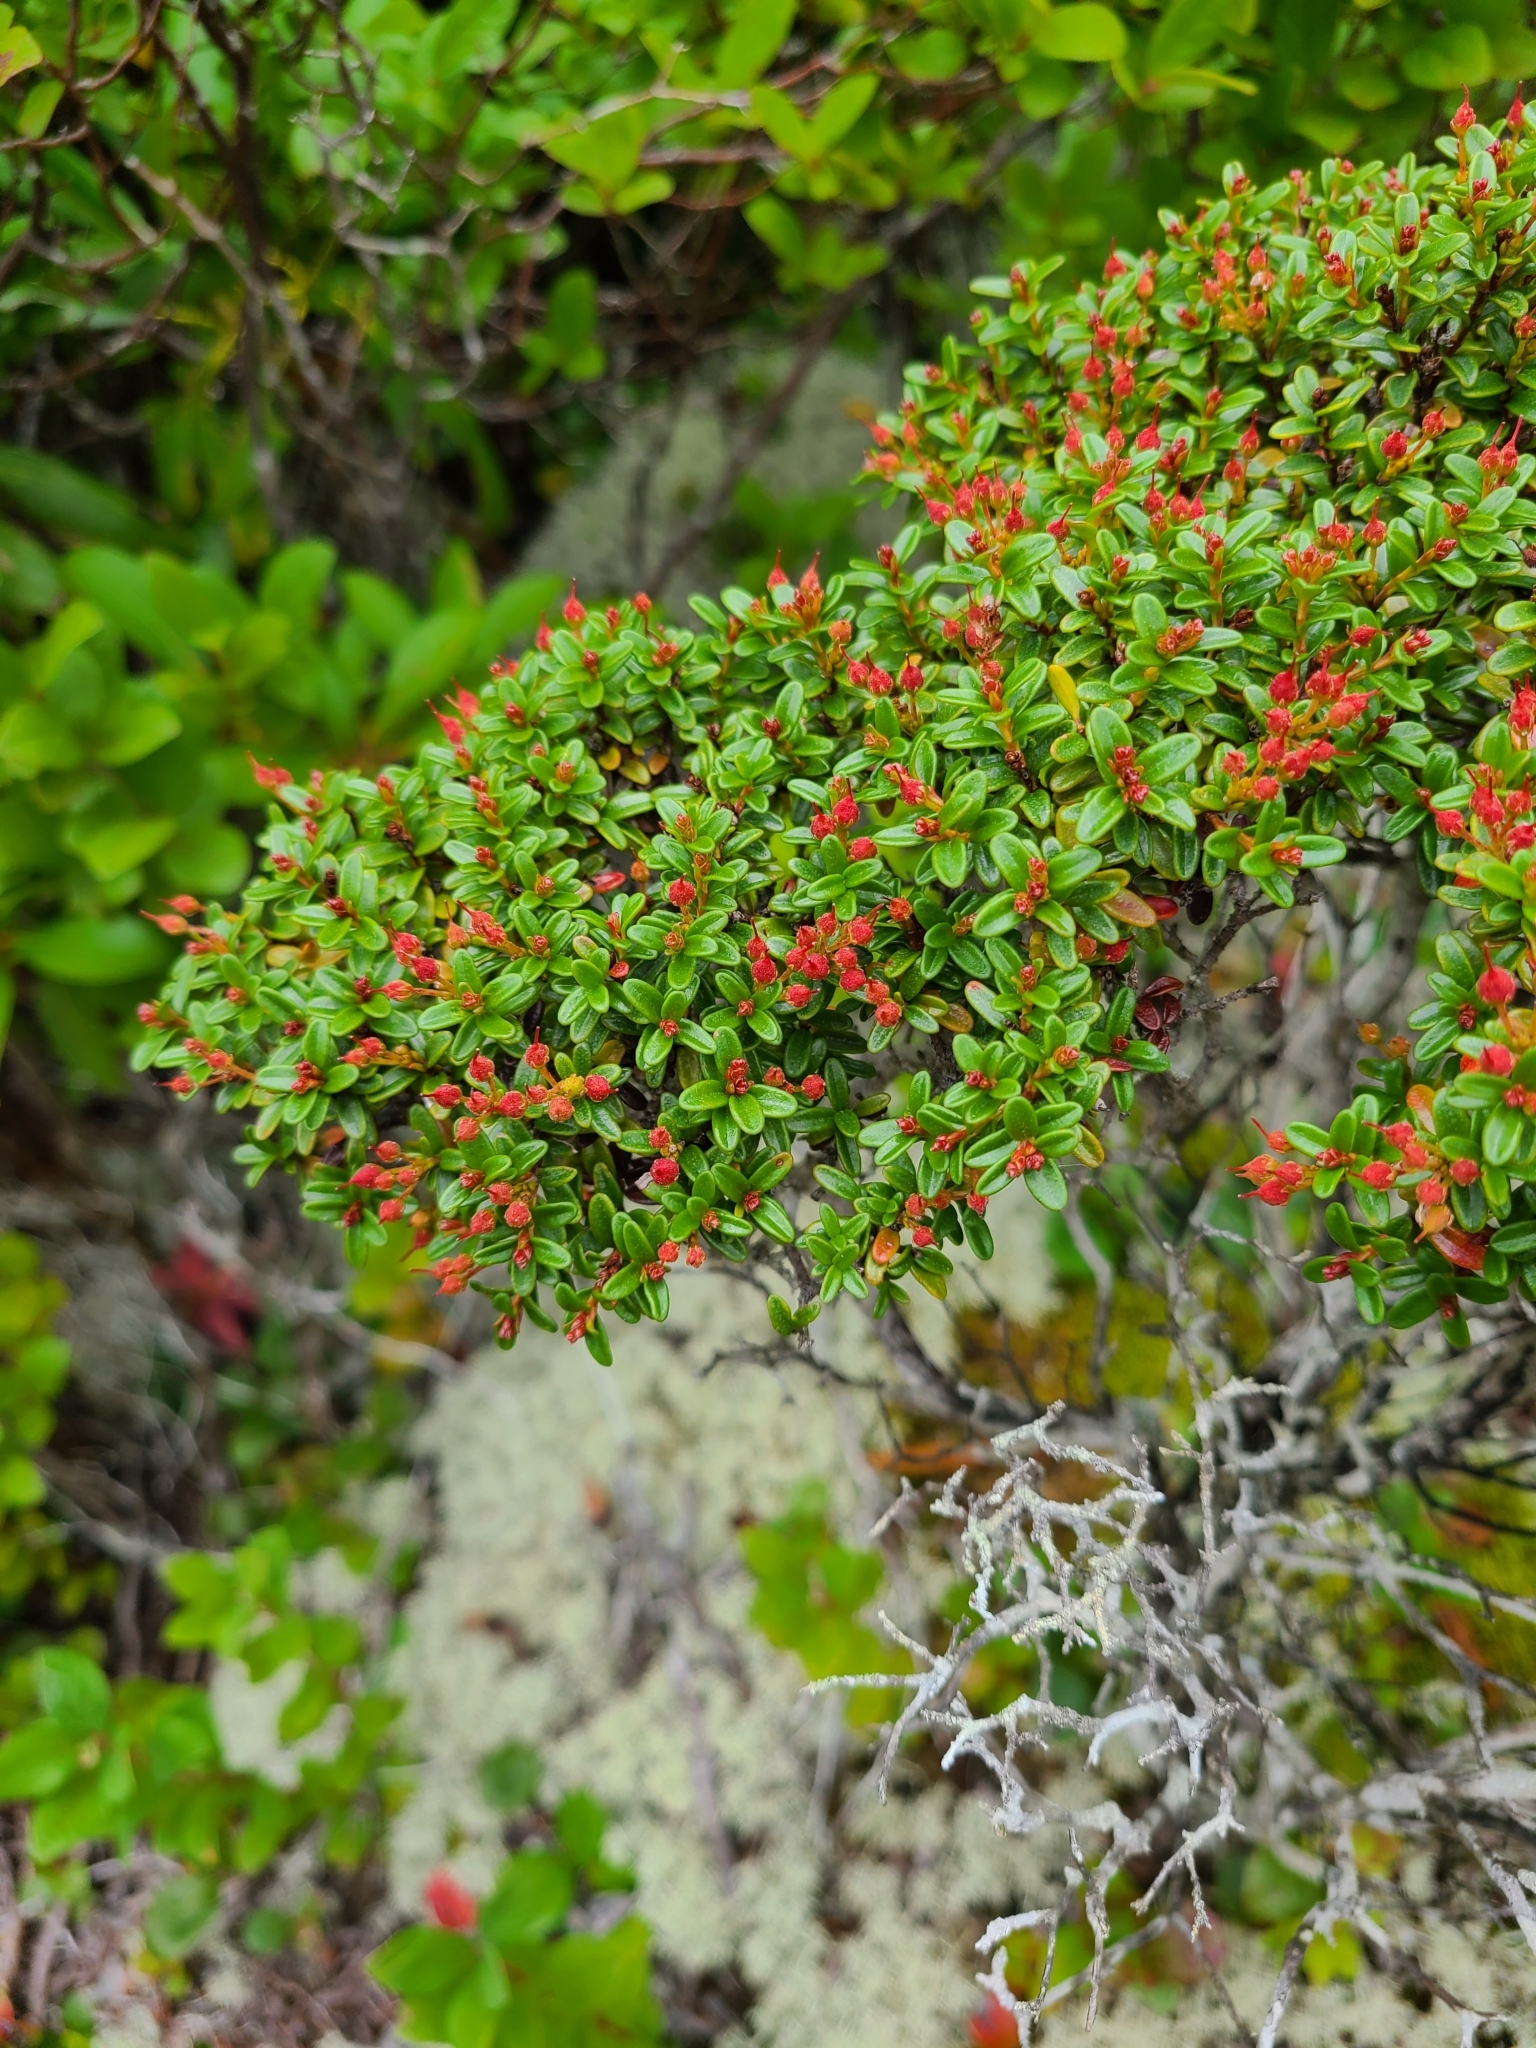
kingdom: Plantae
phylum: Tracheophyta
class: Magnoliopsida
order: Ericales
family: Ericaceae
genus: Kalmia
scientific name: Kalmia buxifolia
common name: Sandmyrtle
